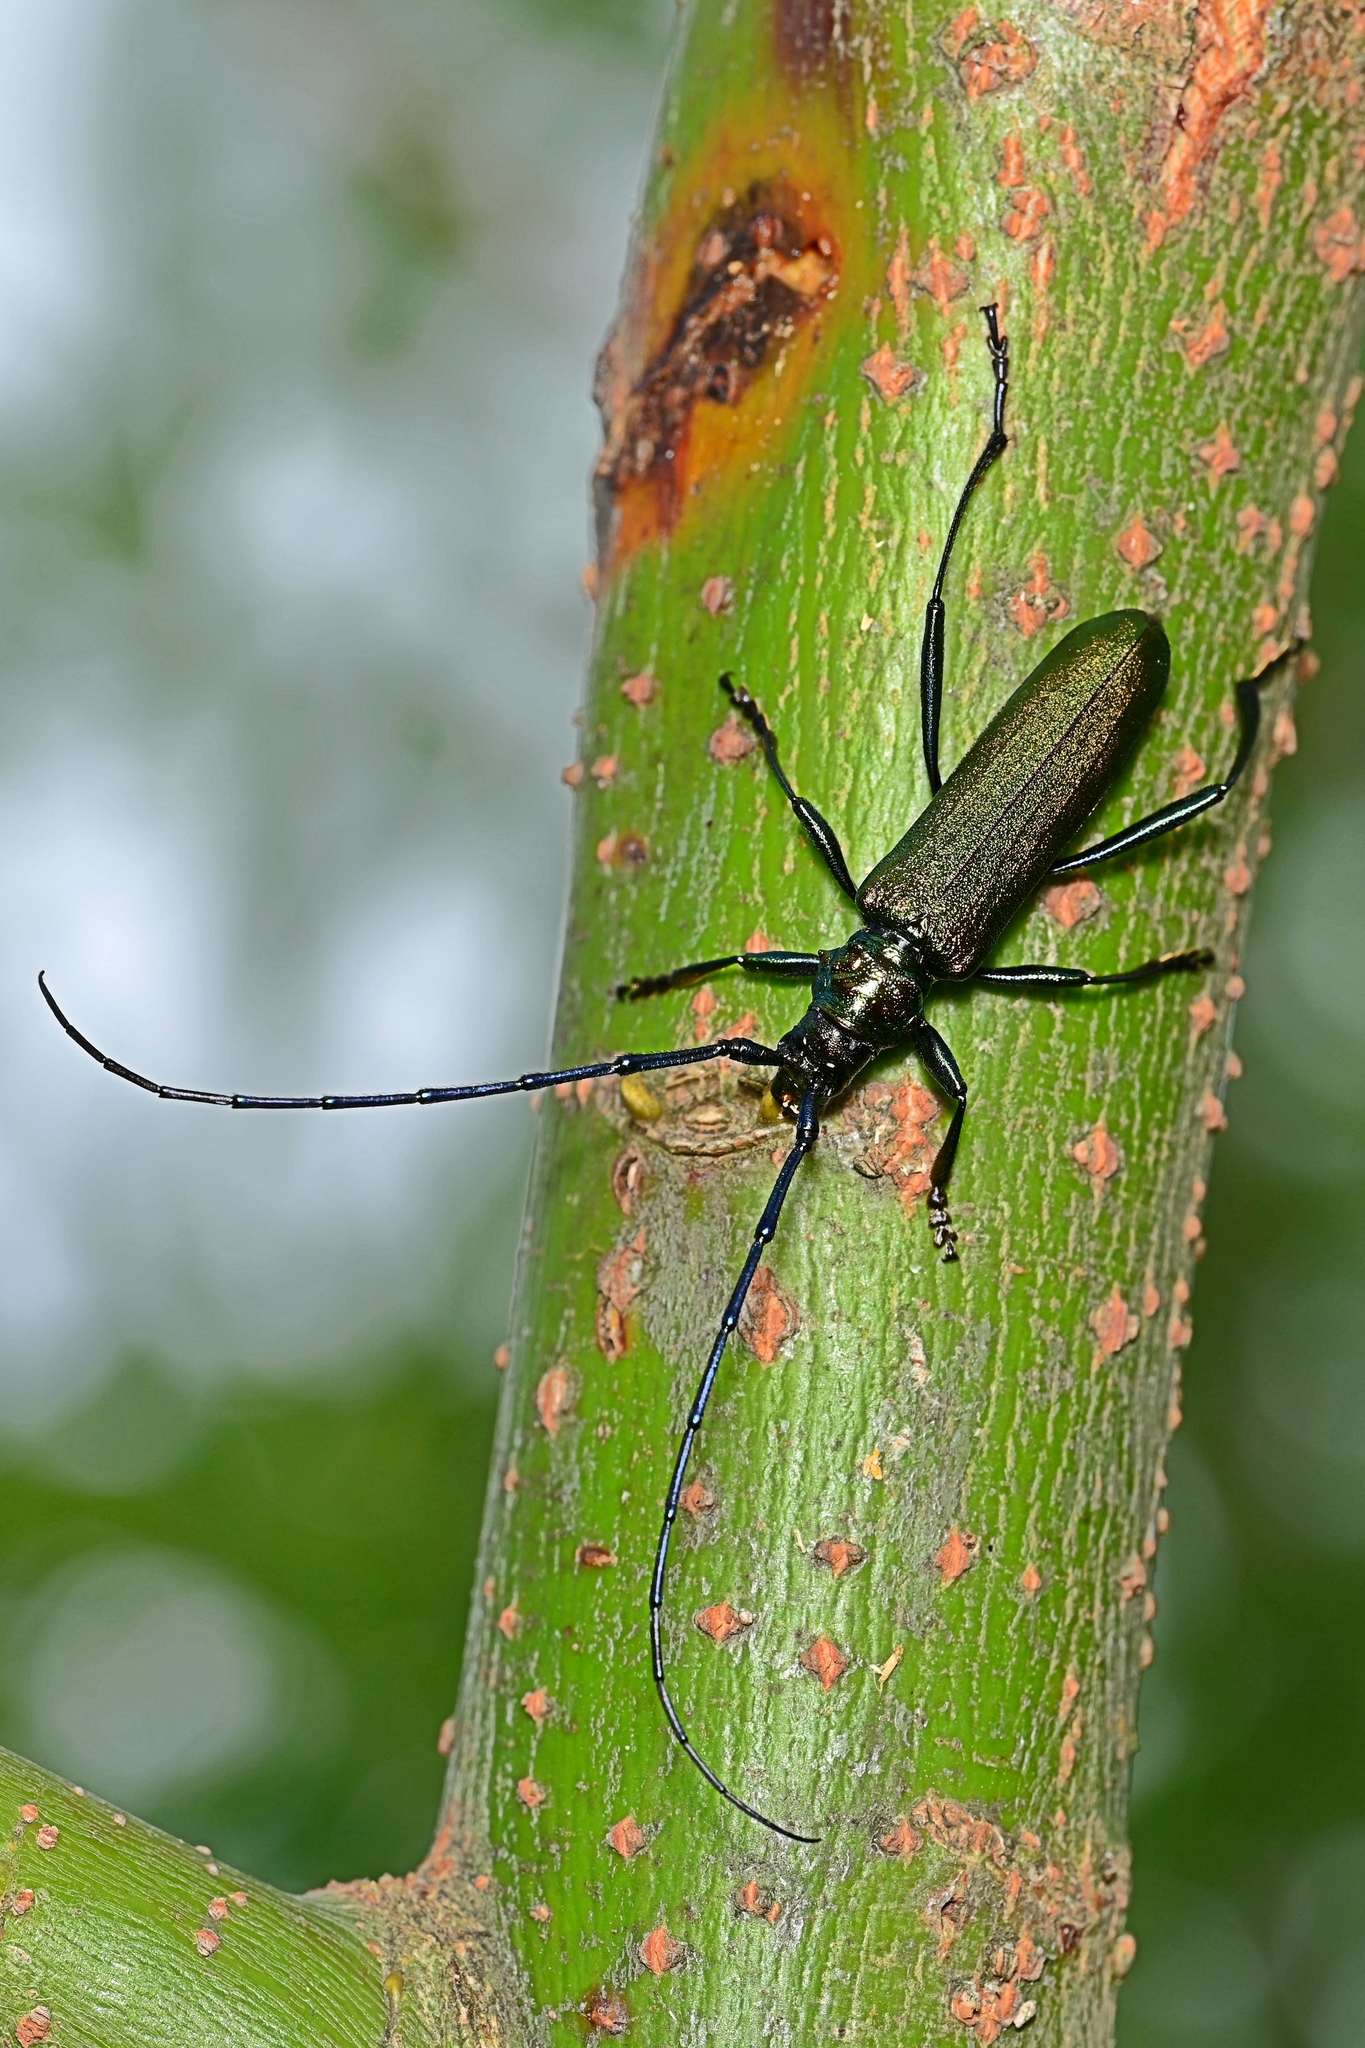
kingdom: Animalia
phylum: Arthropoda
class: Insecta
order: Coleoptera
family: Cerambycidae
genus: Aromia
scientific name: Aromia moschata
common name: Musk beetle
